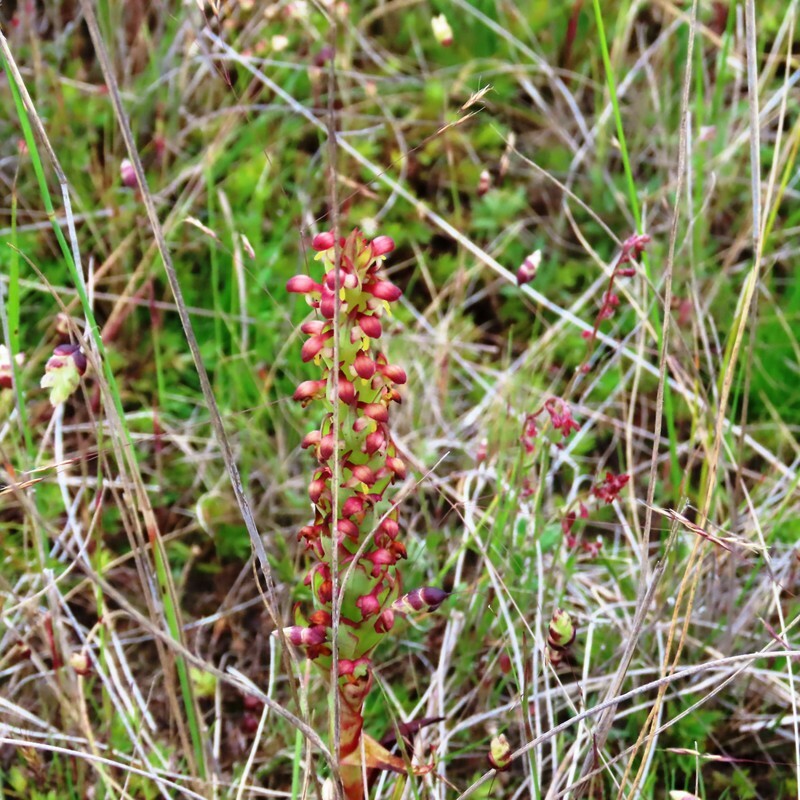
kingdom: Plantae
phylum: Tracheophyta
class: Liliopsida
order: Asparagales
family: Orchidaceae
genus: Disa
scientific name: Disa bracteata
